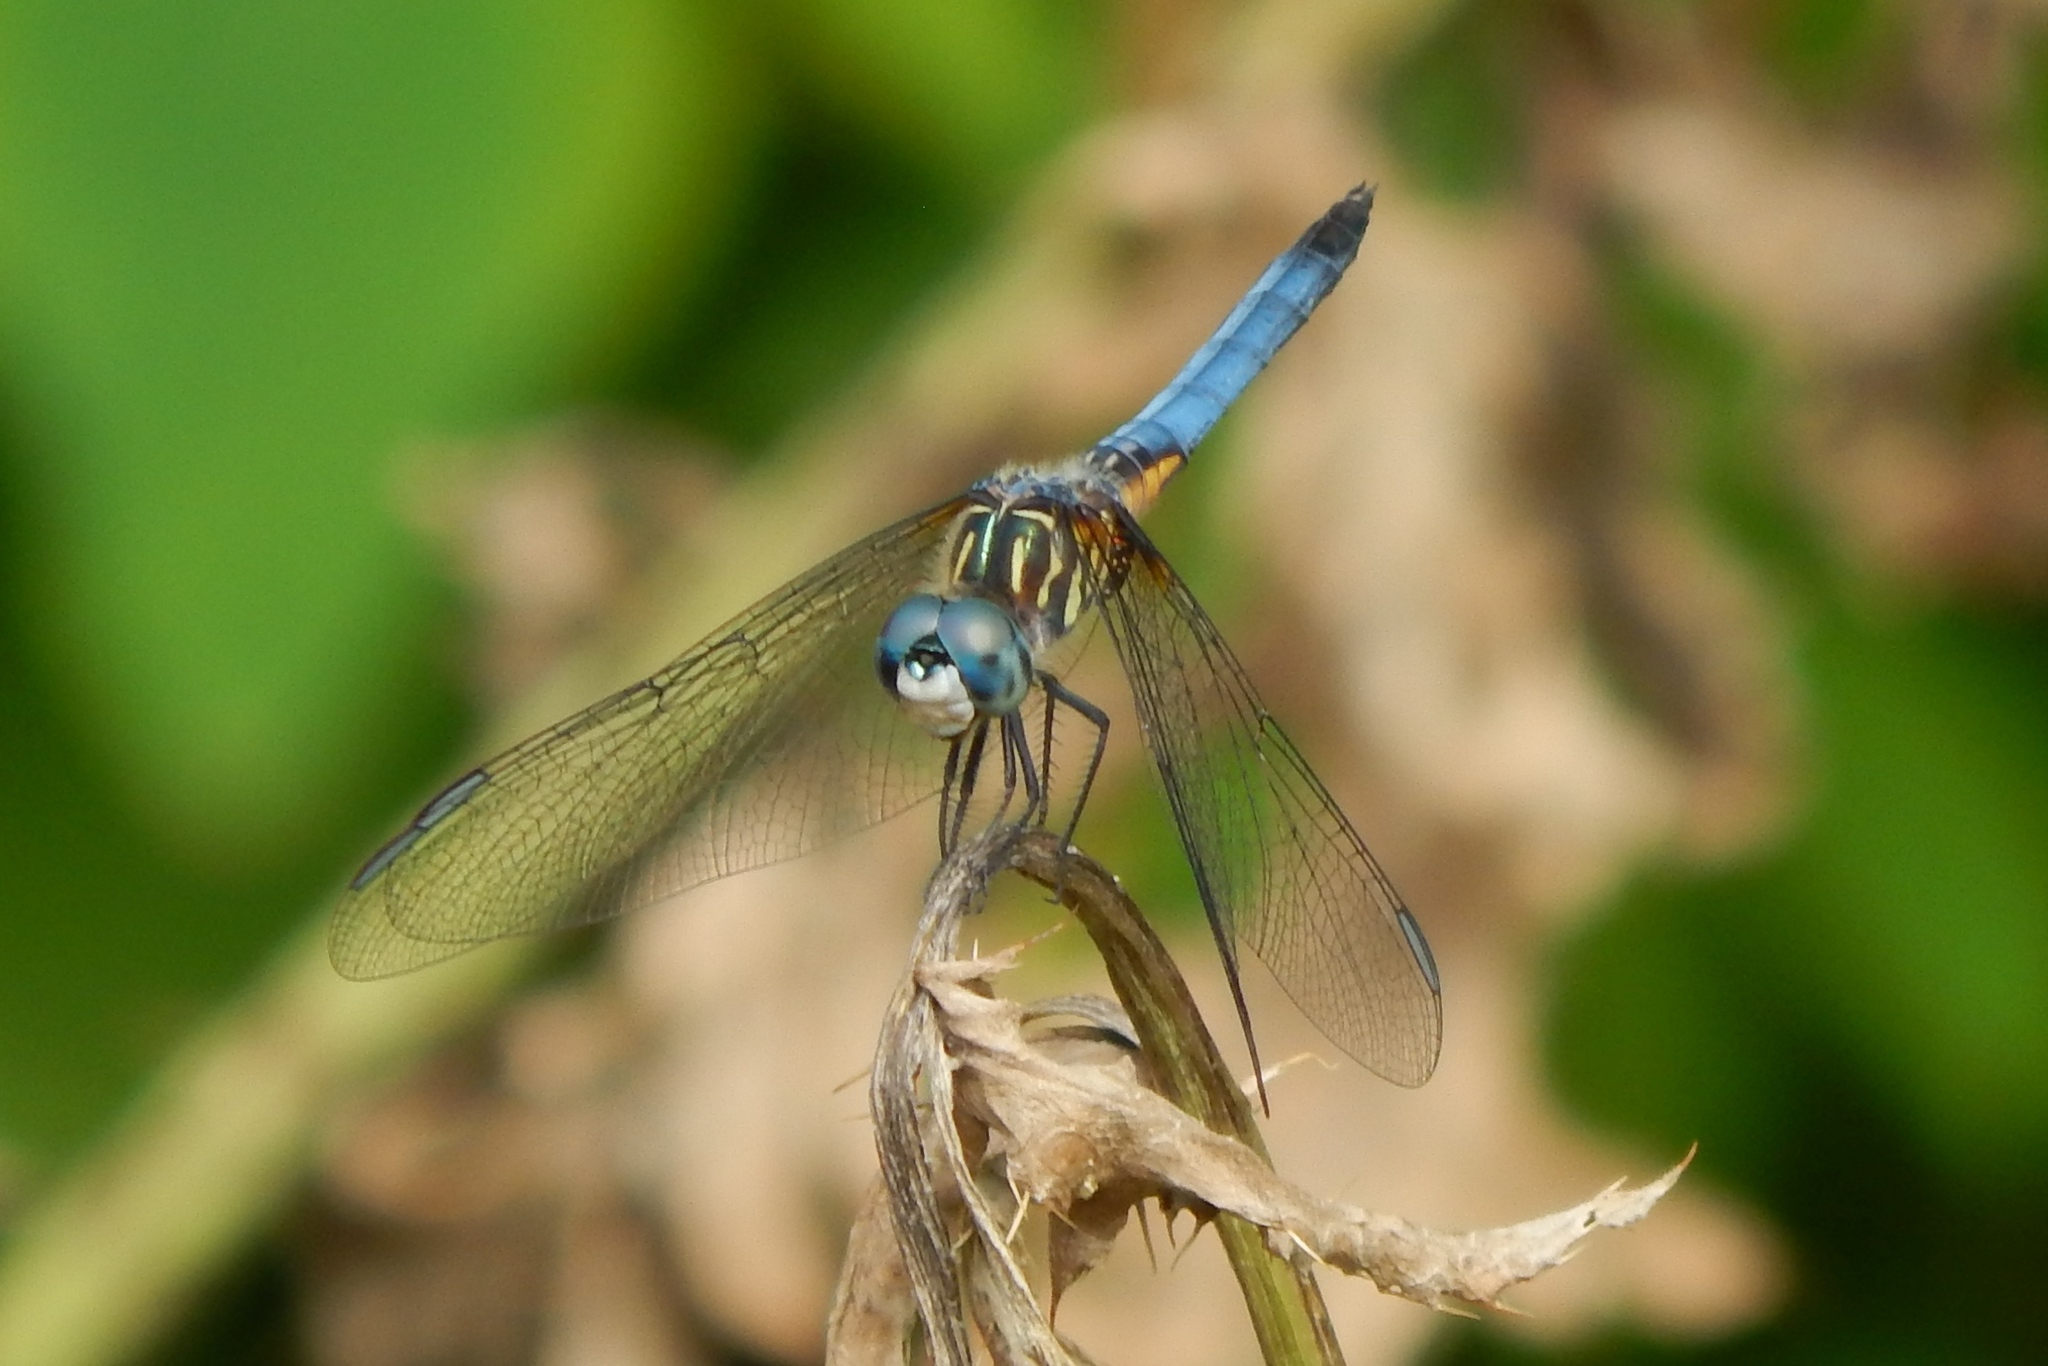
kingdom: Animalia
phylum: Arthropoda
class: Insecta
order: Odonata
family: Libellulidae
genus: Pachydiplax
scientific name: Pachydiplax longipennis
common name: Blue dasher
